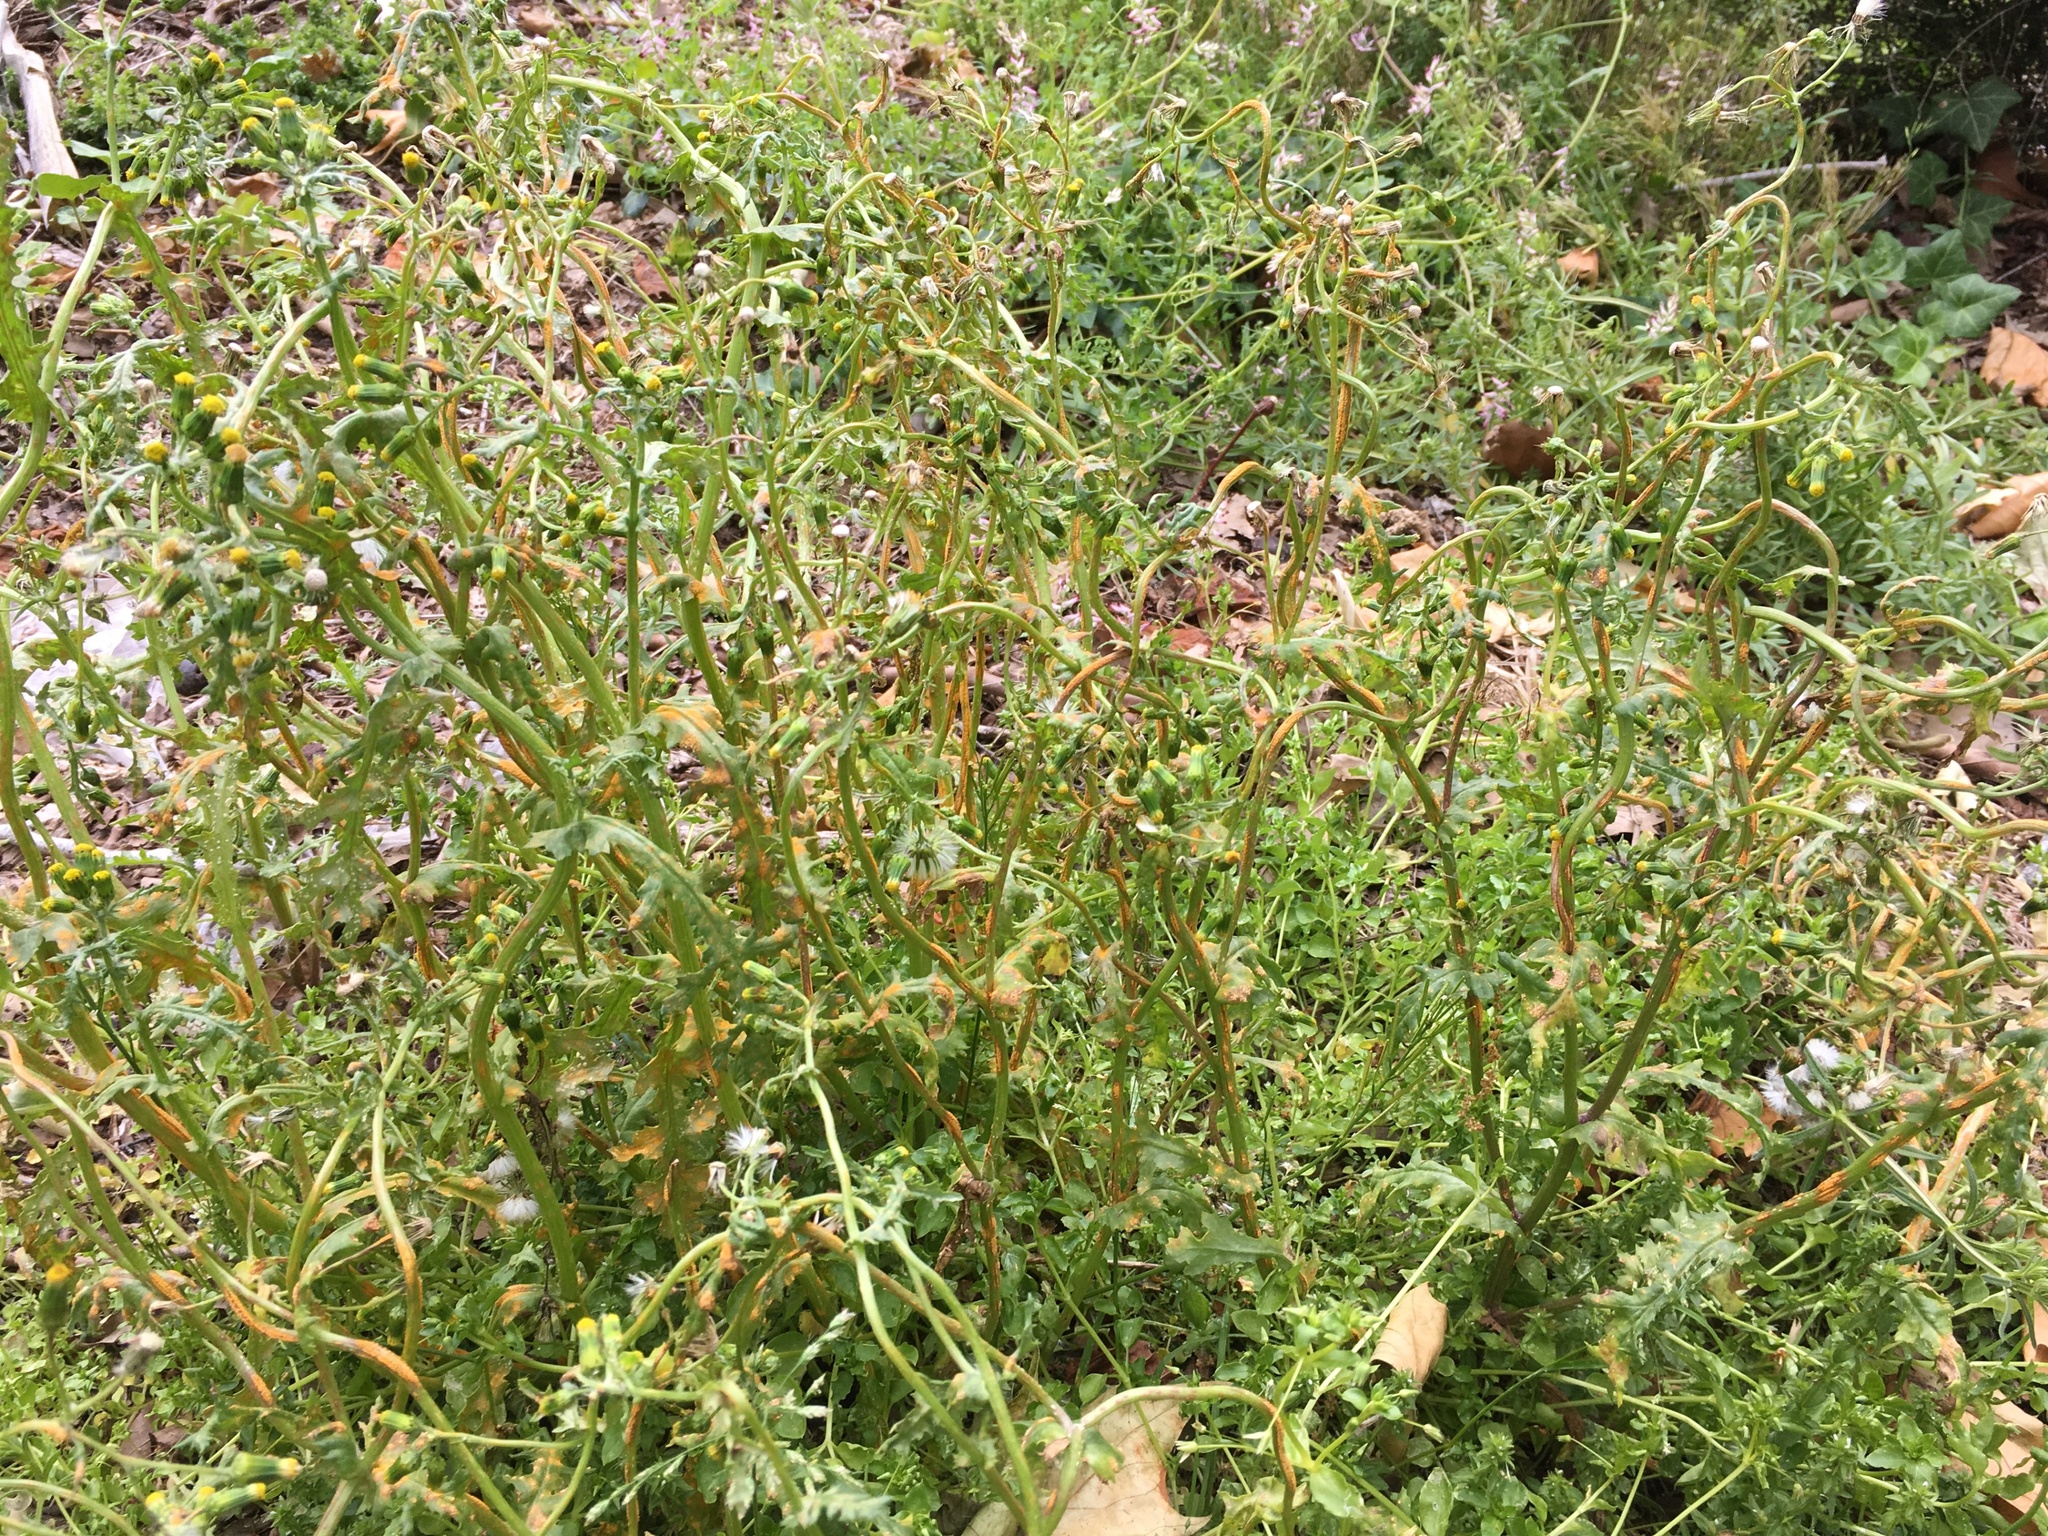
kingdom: Plantae
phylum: Tracheophyta
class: Magnoliopsida
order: Asterales
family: Asteraceae
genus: Senecio
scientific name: Senecio vulgaris
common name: Old-man-in-the-spring
